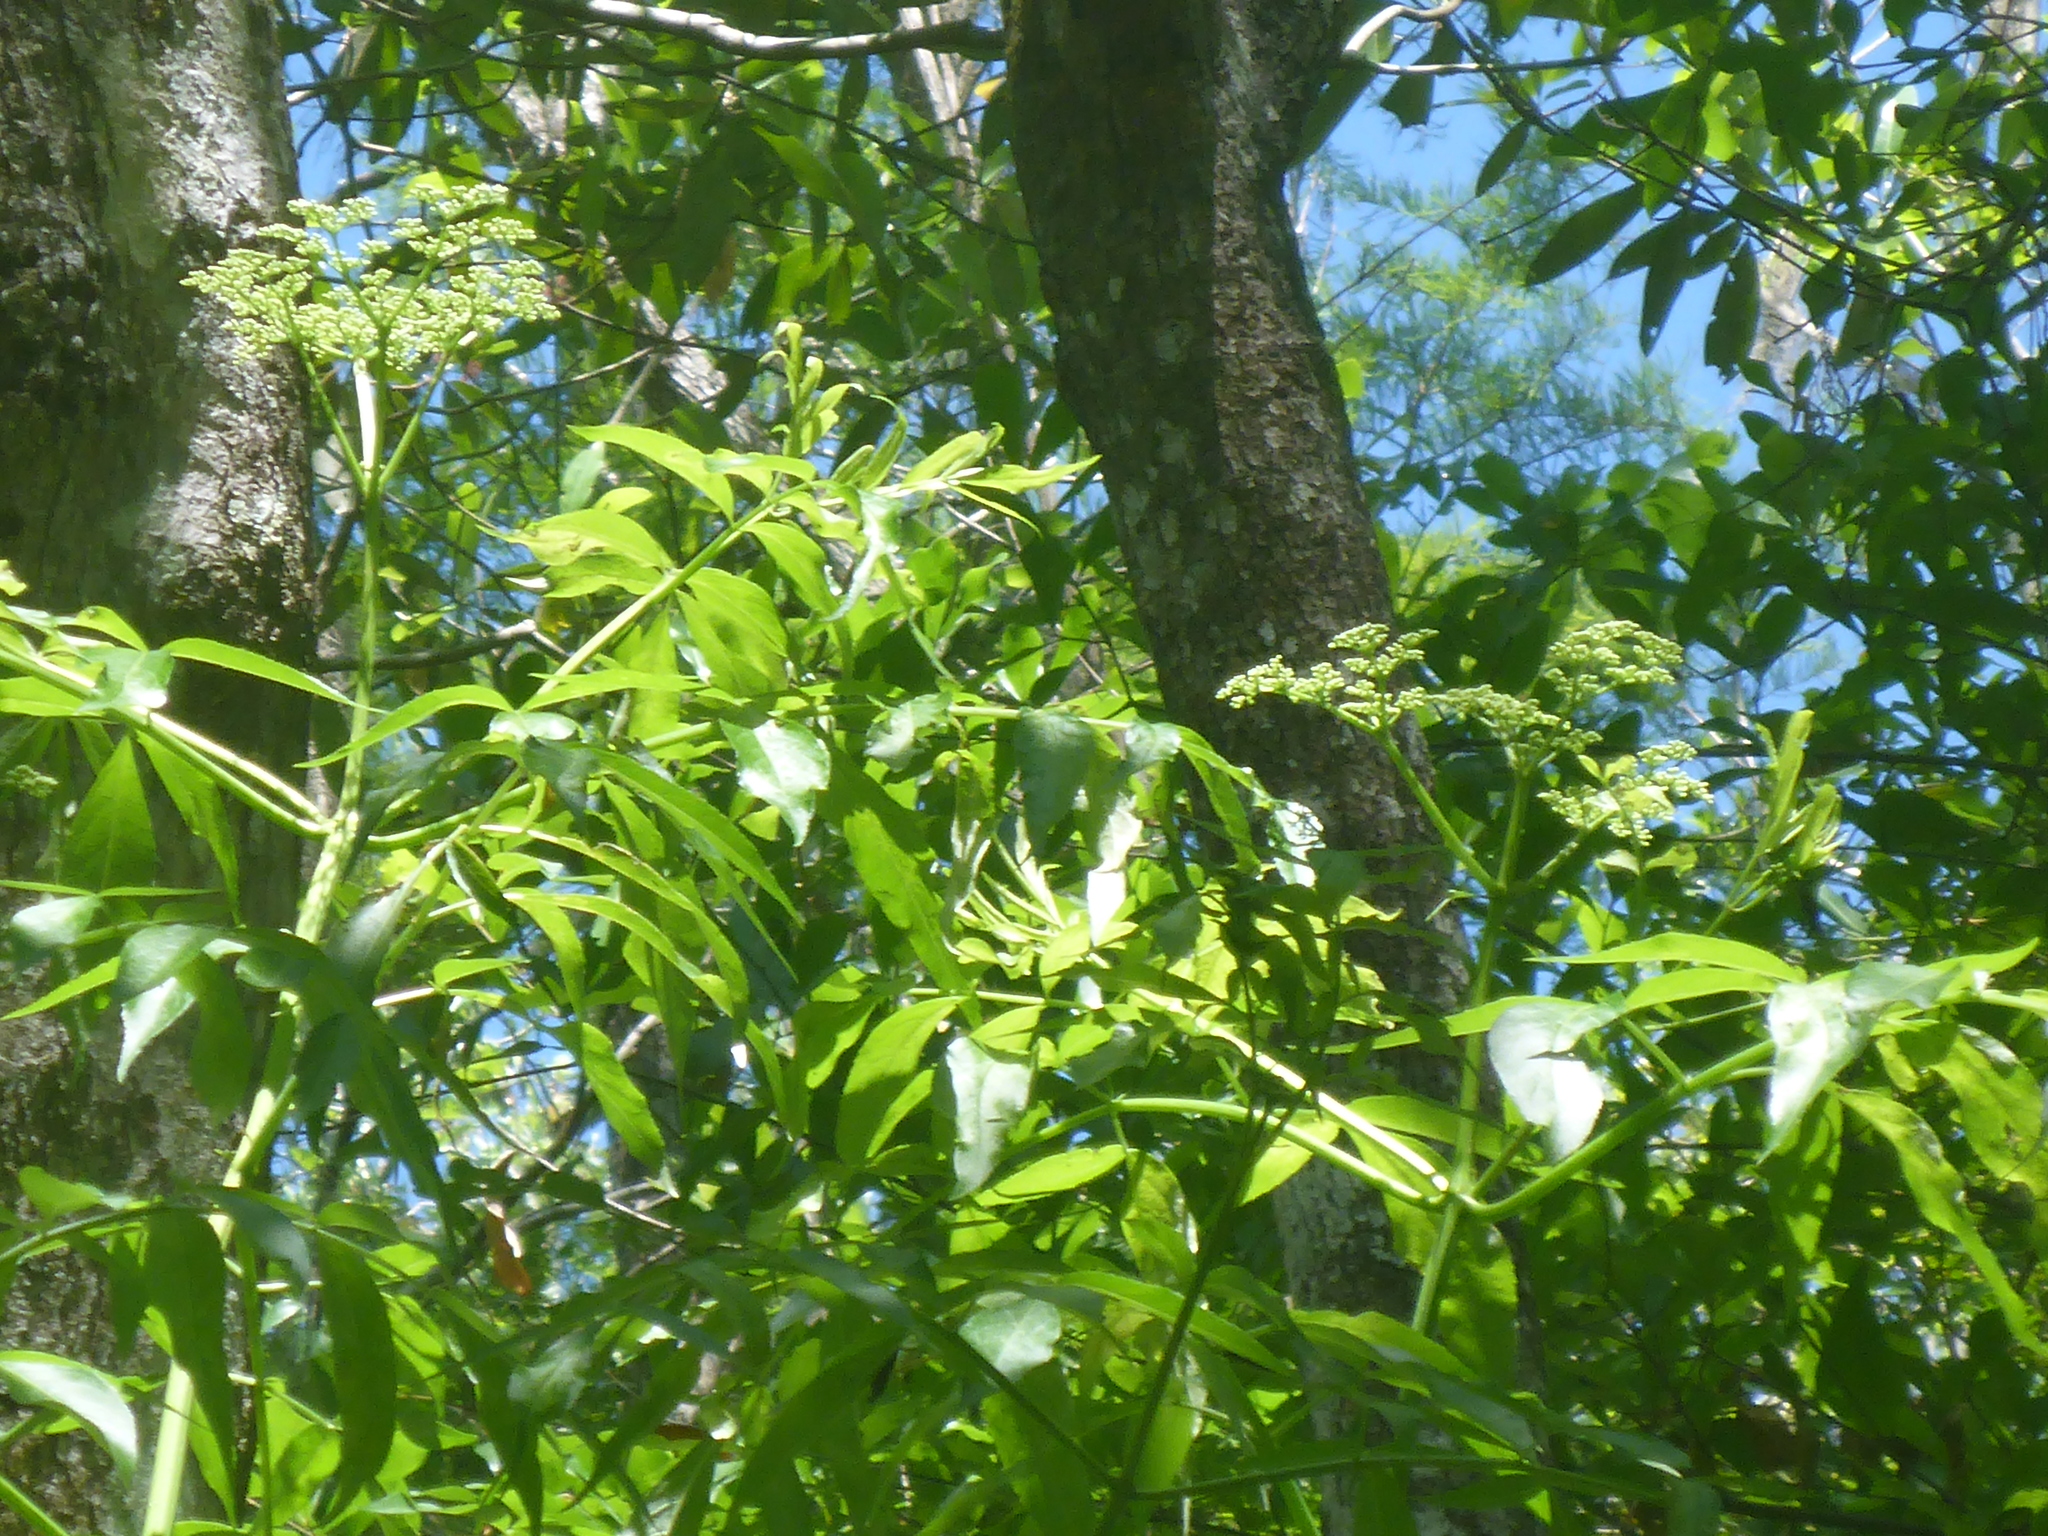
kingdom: Plantae
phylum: Tracheophyta
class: Magnoliopsida
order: Dipsacales
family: Viburnaceae
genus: Sambucus
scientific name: Sambucus canadensis
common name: American elder
